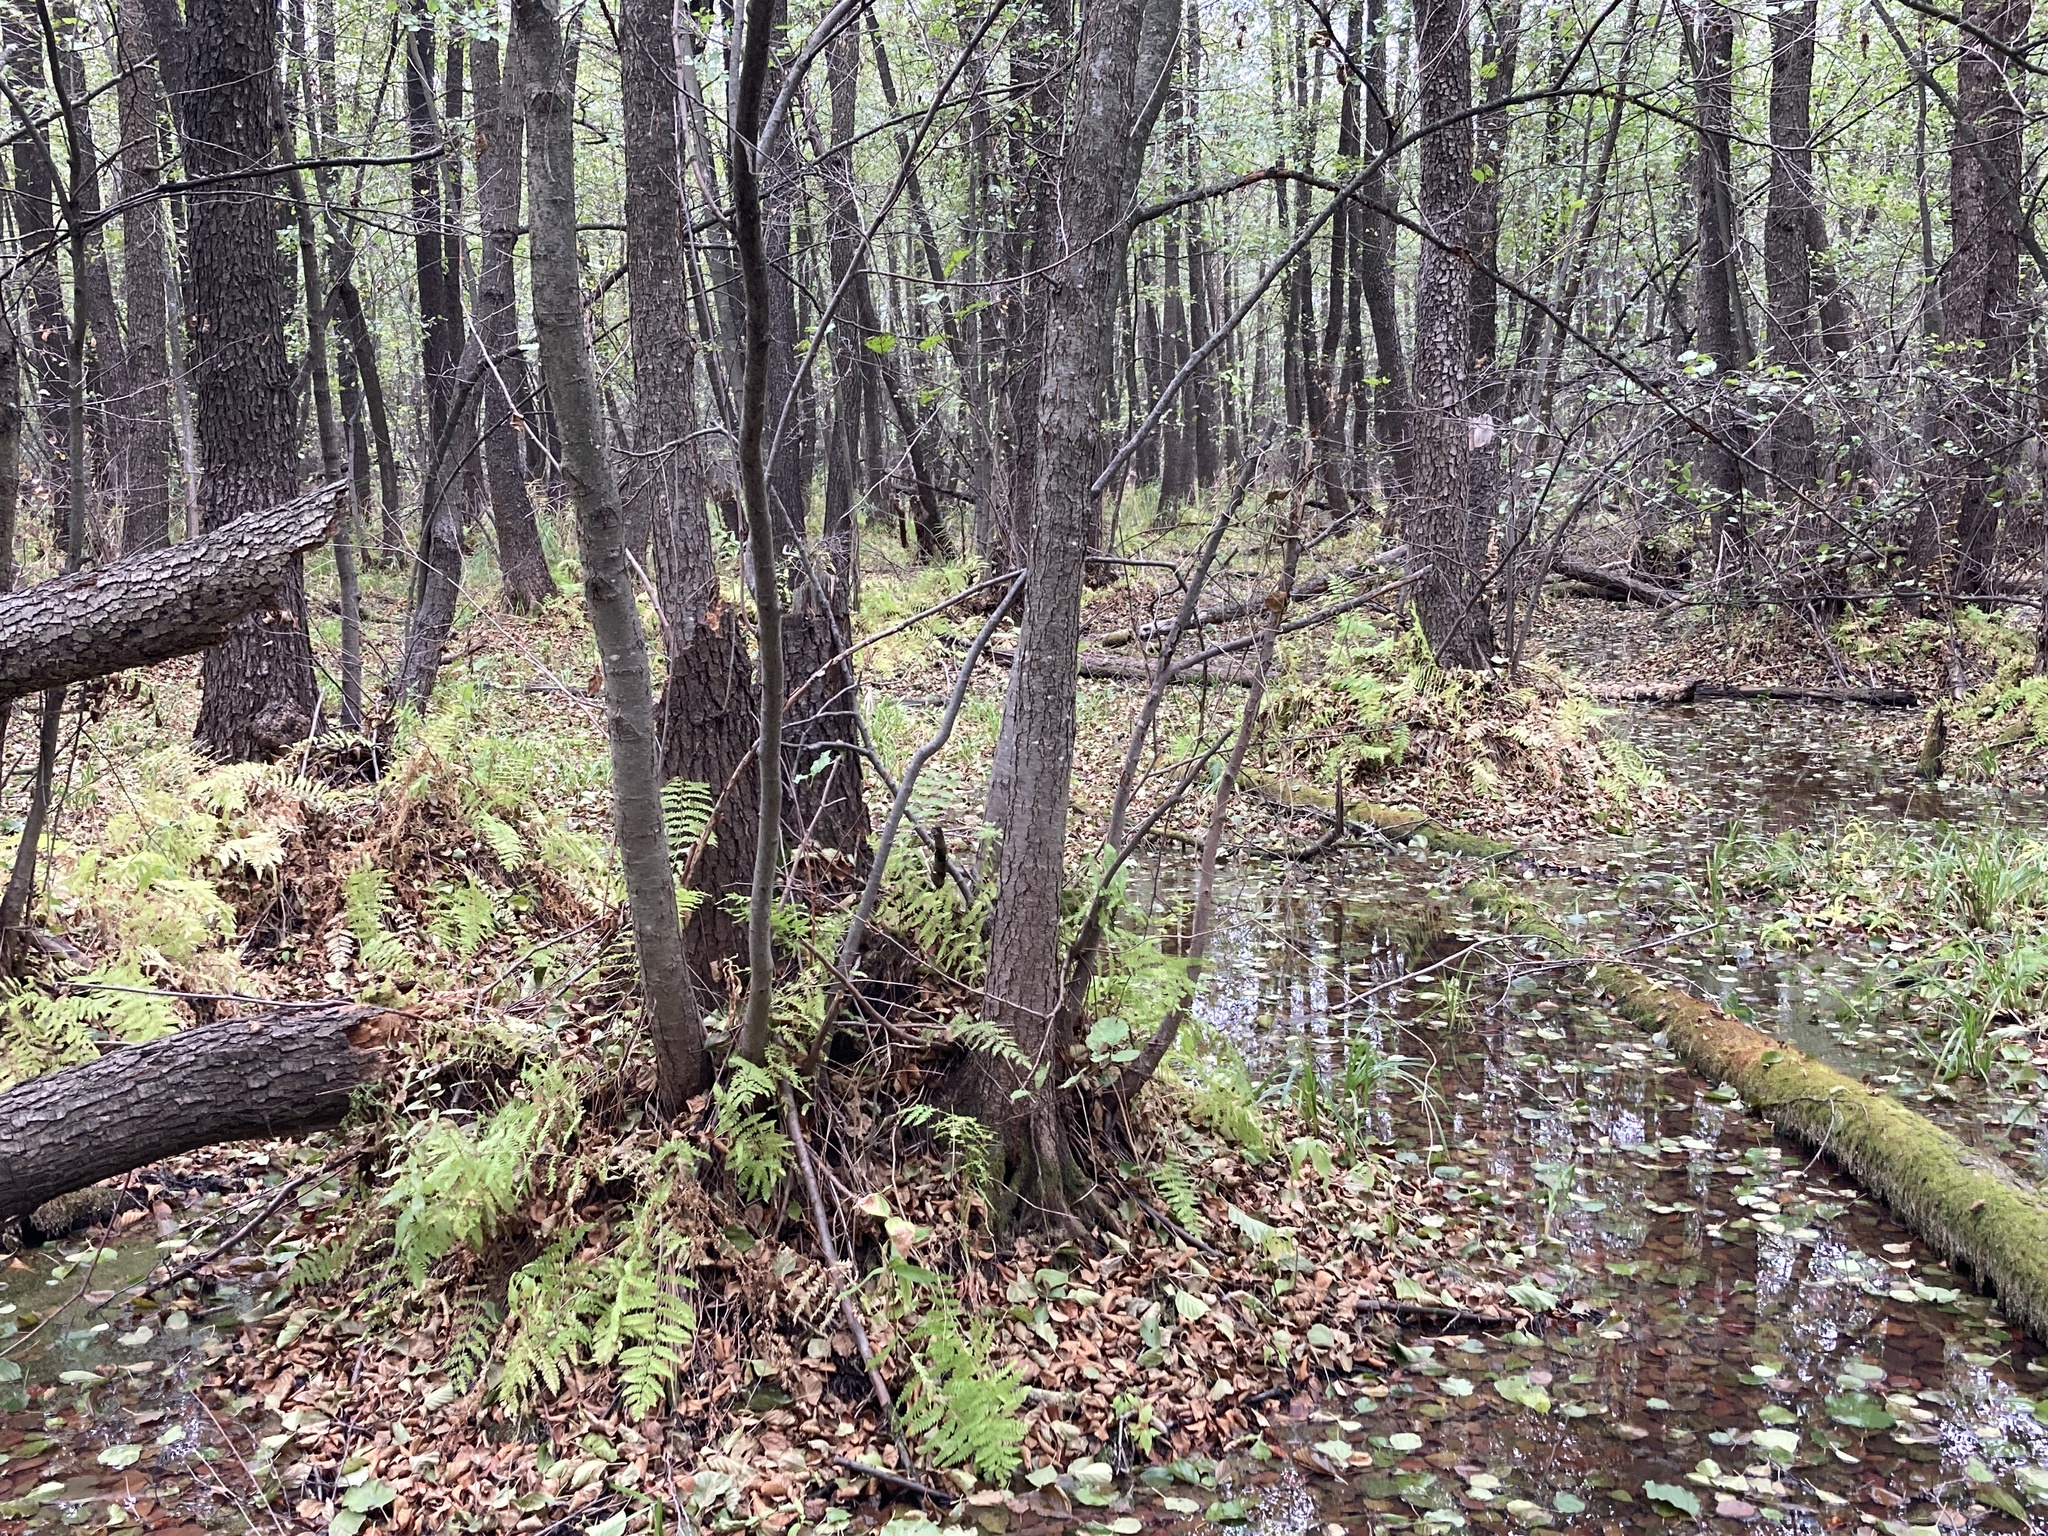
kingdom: Plantae
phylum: Tracheophyta
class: Polypodiopsida
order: Polypodiales
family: Thelypteridaceae
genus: Thelypteris
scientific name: Thelypteris palustris
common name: Marsh fern
